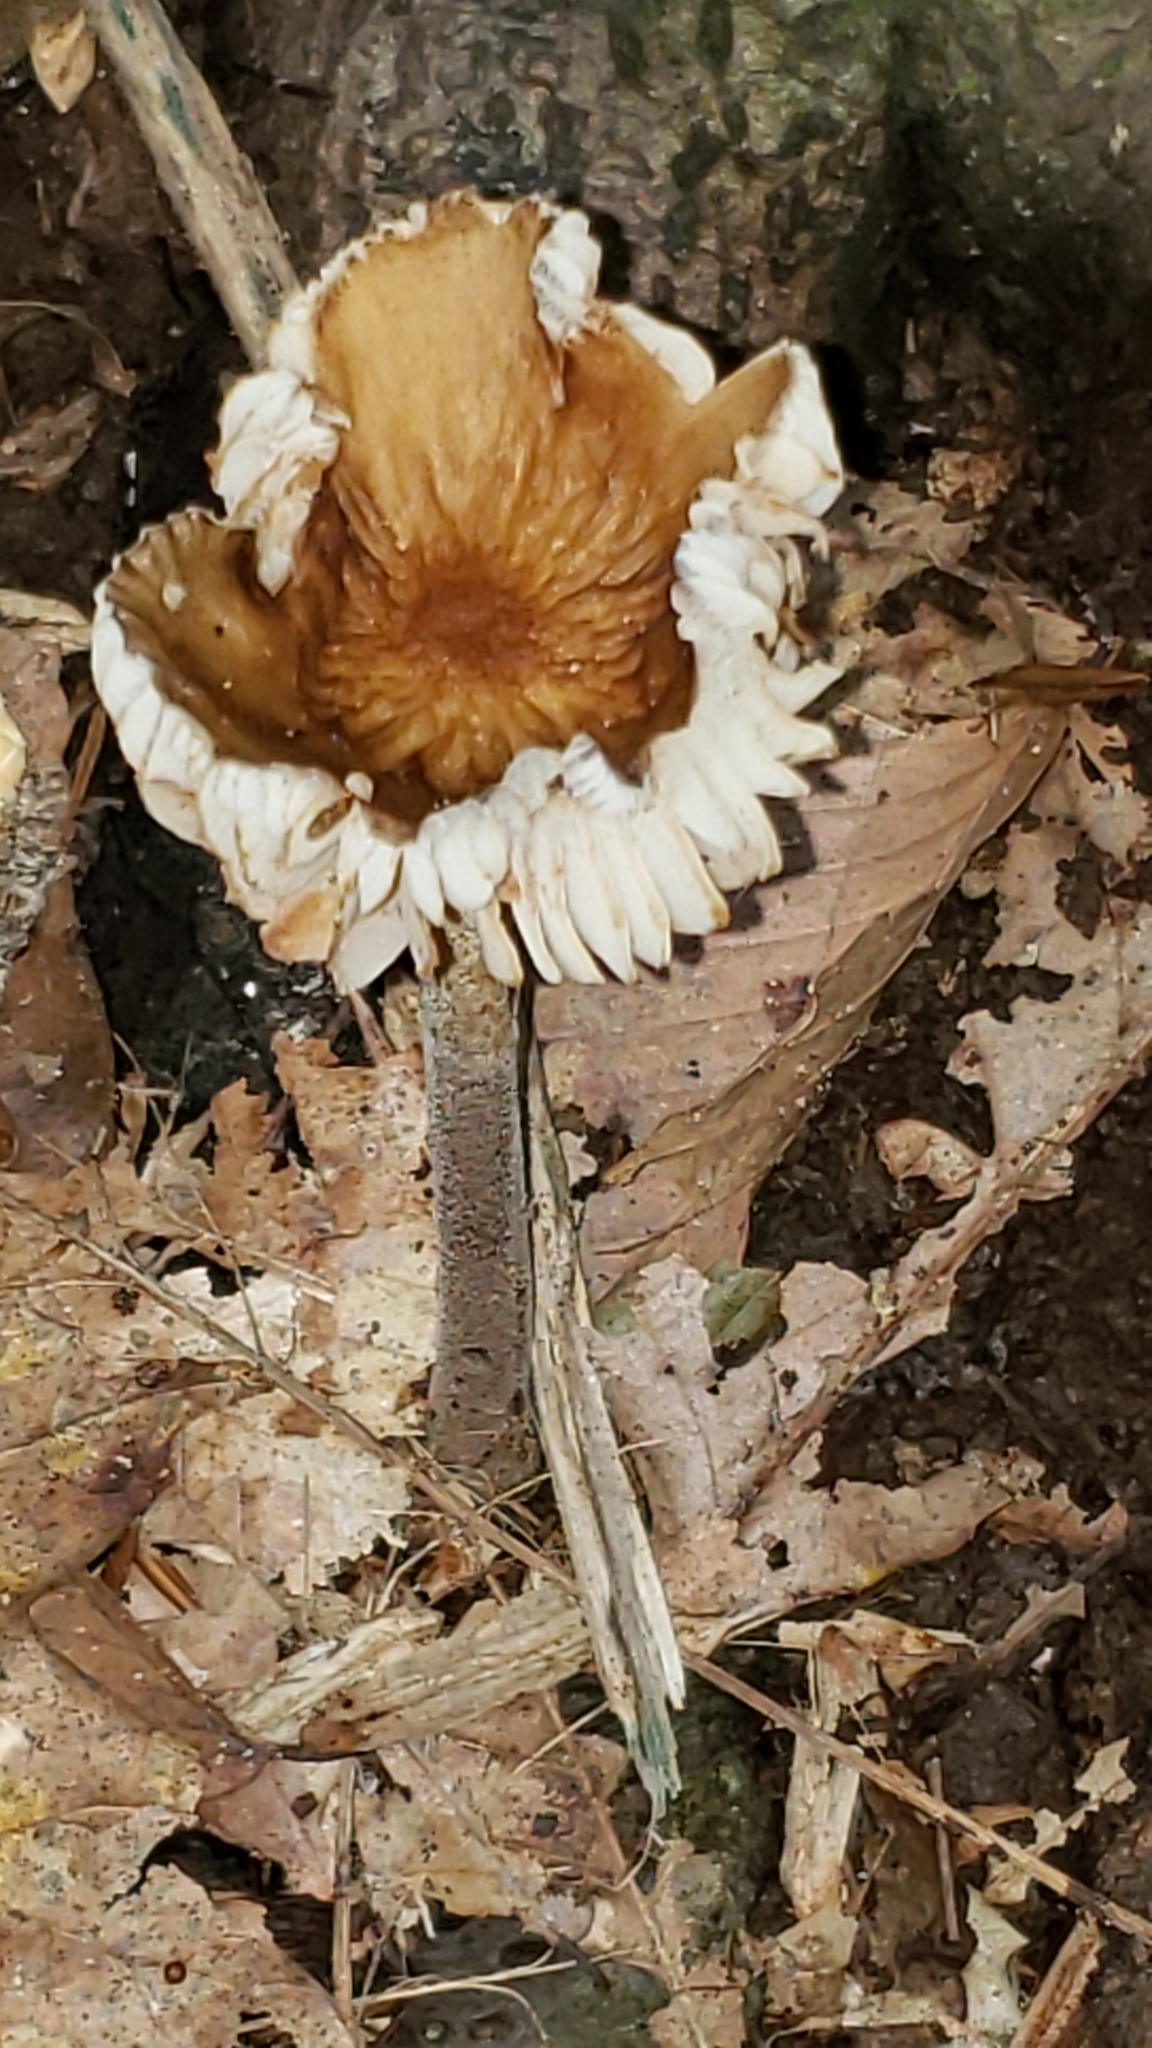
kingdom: Fungi
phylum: Basidiomycota
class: Agaricomycetes
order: Agaricales
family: Physalacriaceae
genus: Hymenopellis
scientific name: Hymenopellis furfuracea
